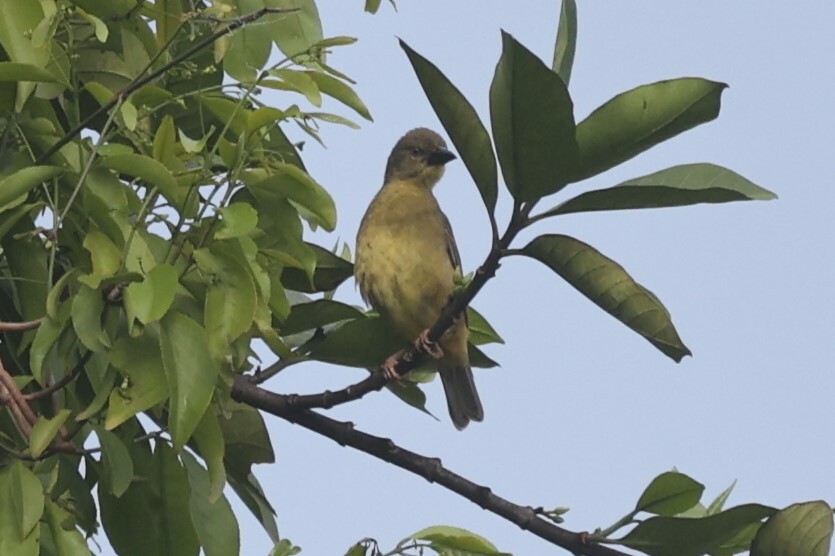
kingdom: Animalia
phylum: Chordata
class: Aves
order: Passeriformes
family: Ploceidae
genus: Ploceus
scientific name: Ploceus nigerrimus
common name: Vieillot's black weaver
